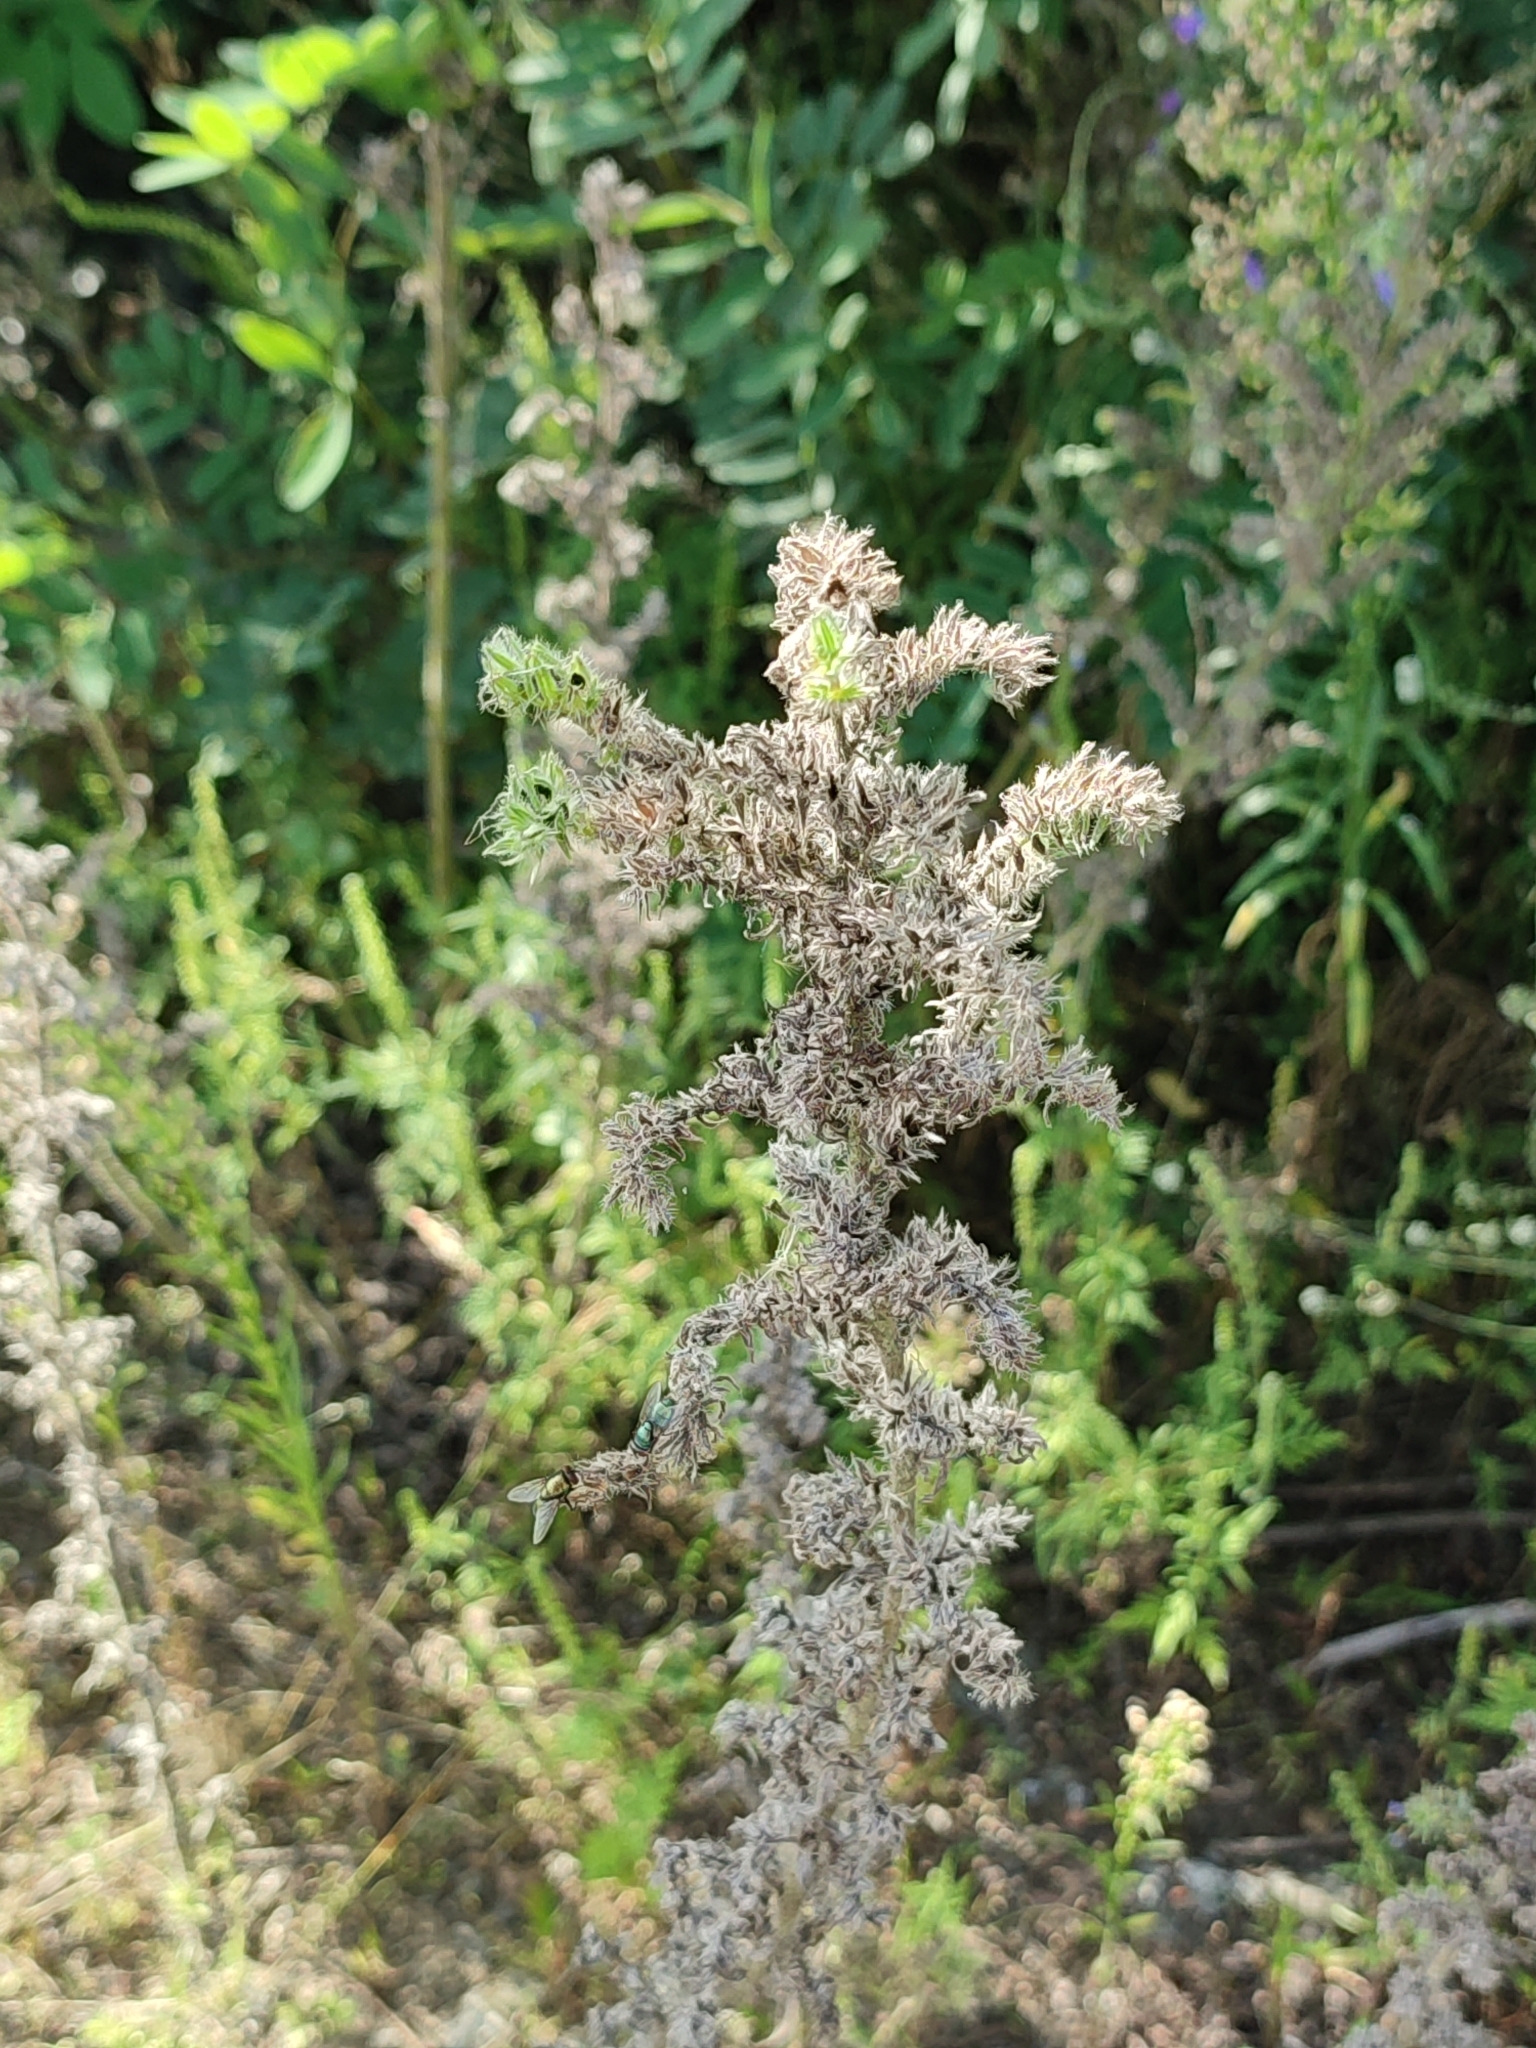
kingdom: Plantae
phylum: Tracheophyta
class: Magnoliopsida
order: Boraginales
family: Boraginaceae
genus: Echium
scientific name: Echium vulgare
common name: Common viper's bugloss
